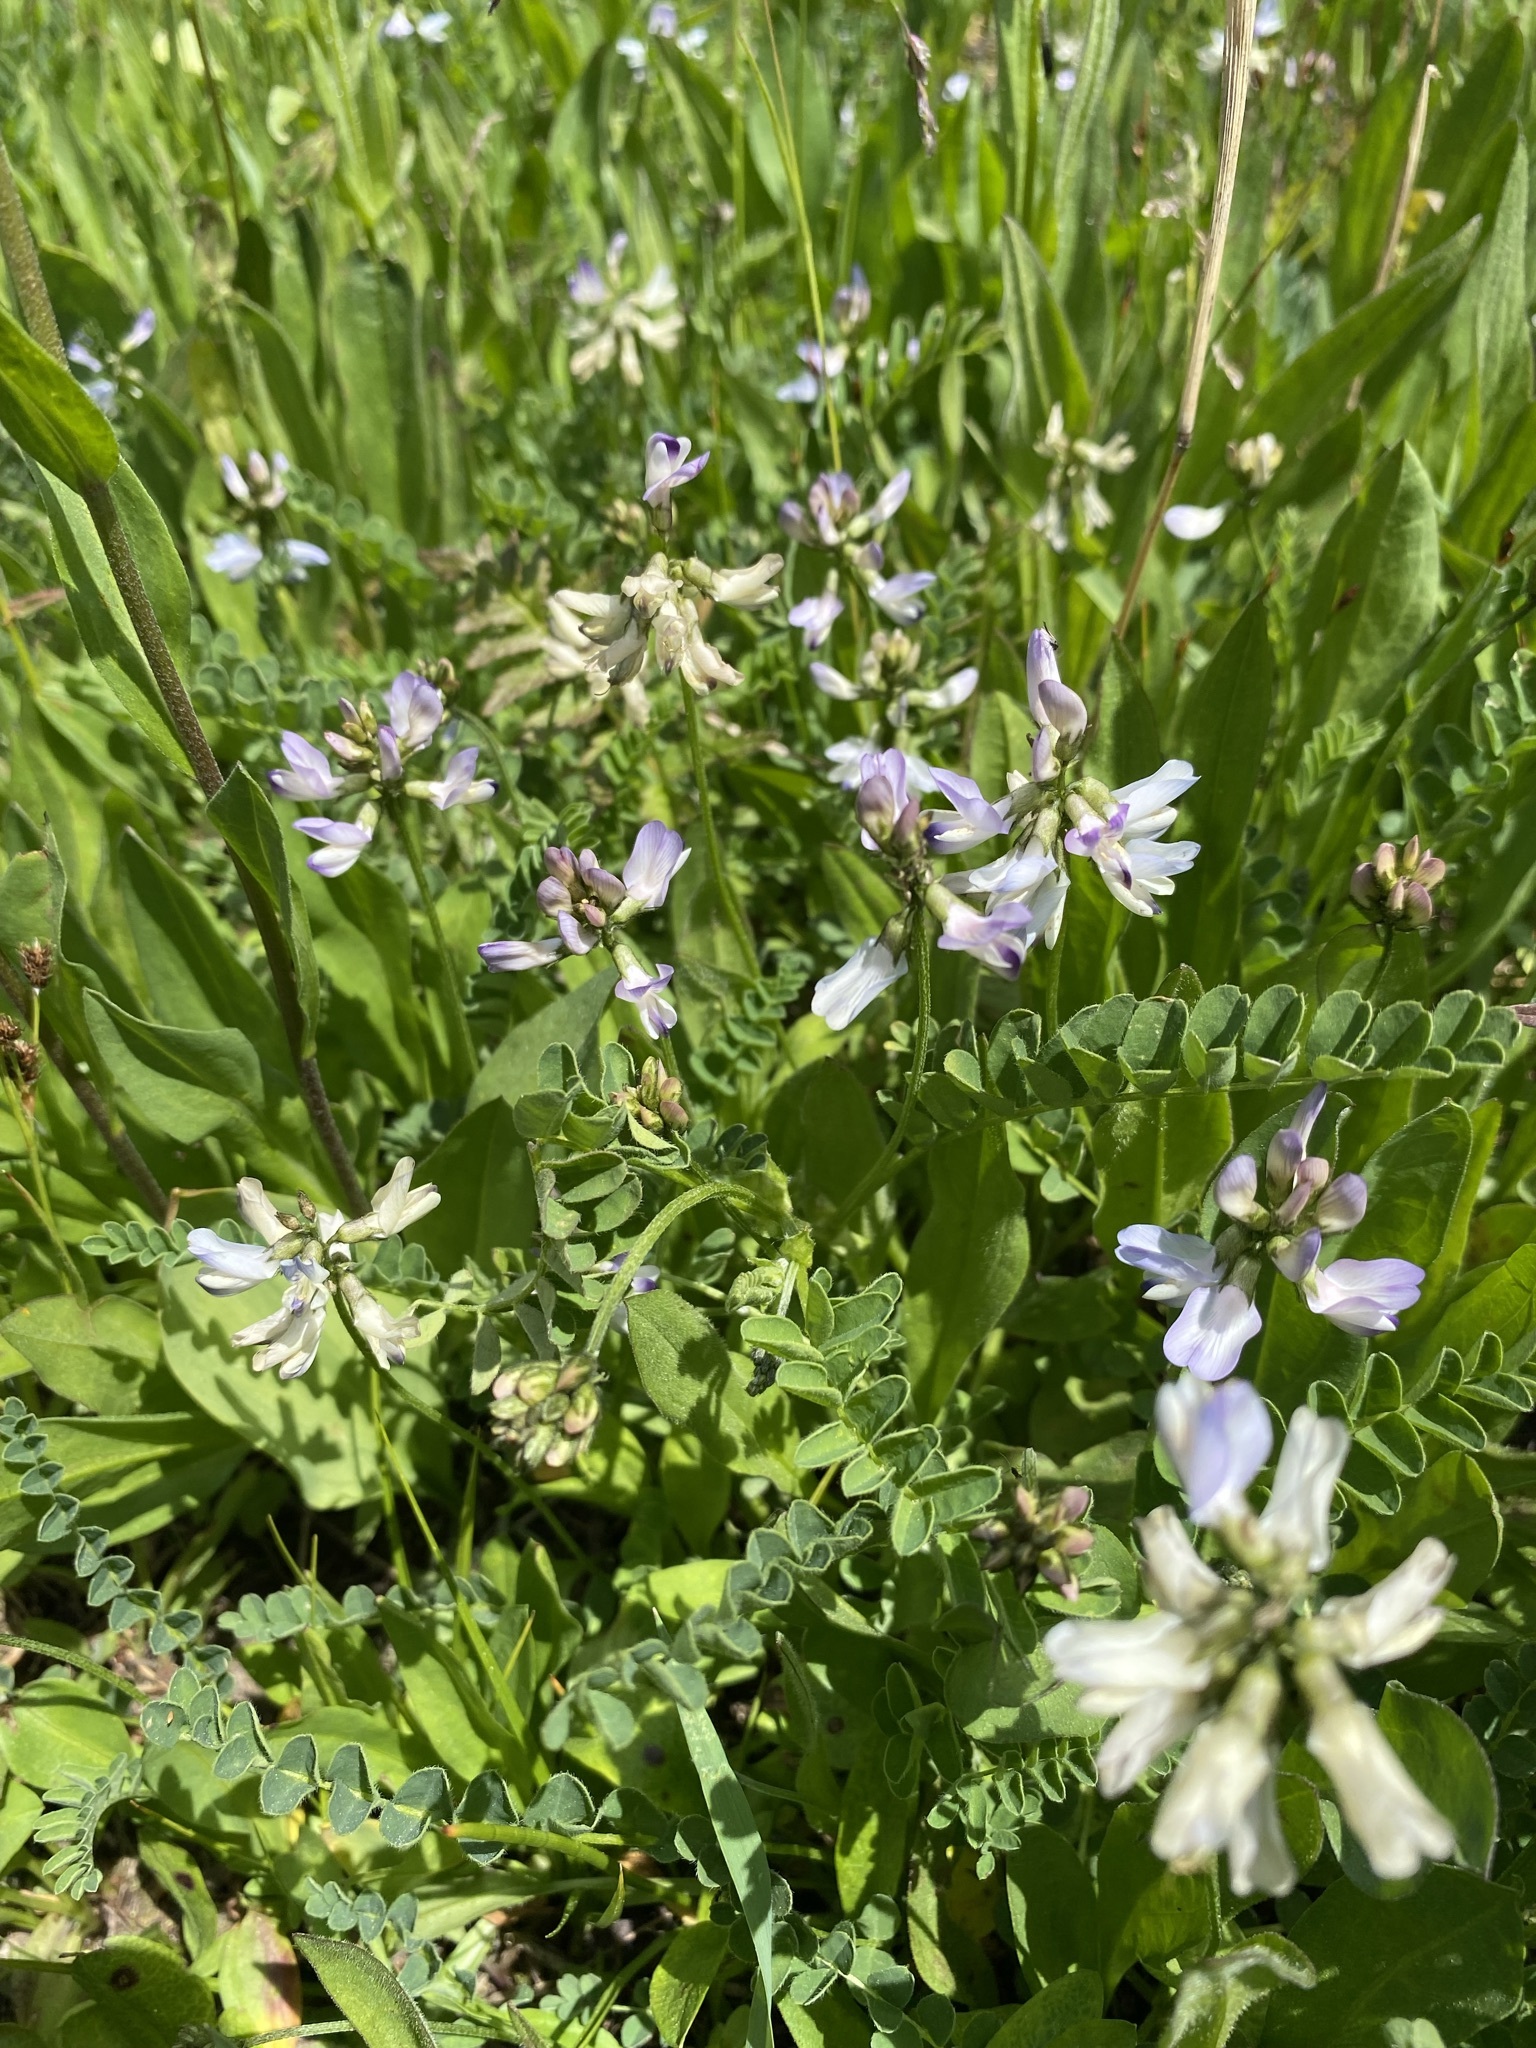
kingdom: Plantae
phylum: Tracheophyta
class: Magnoliopsida
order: Fabales
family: Fabaceae
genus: Astragalus
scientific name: Astragalus alpinus
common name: Alpine milk-vetch
